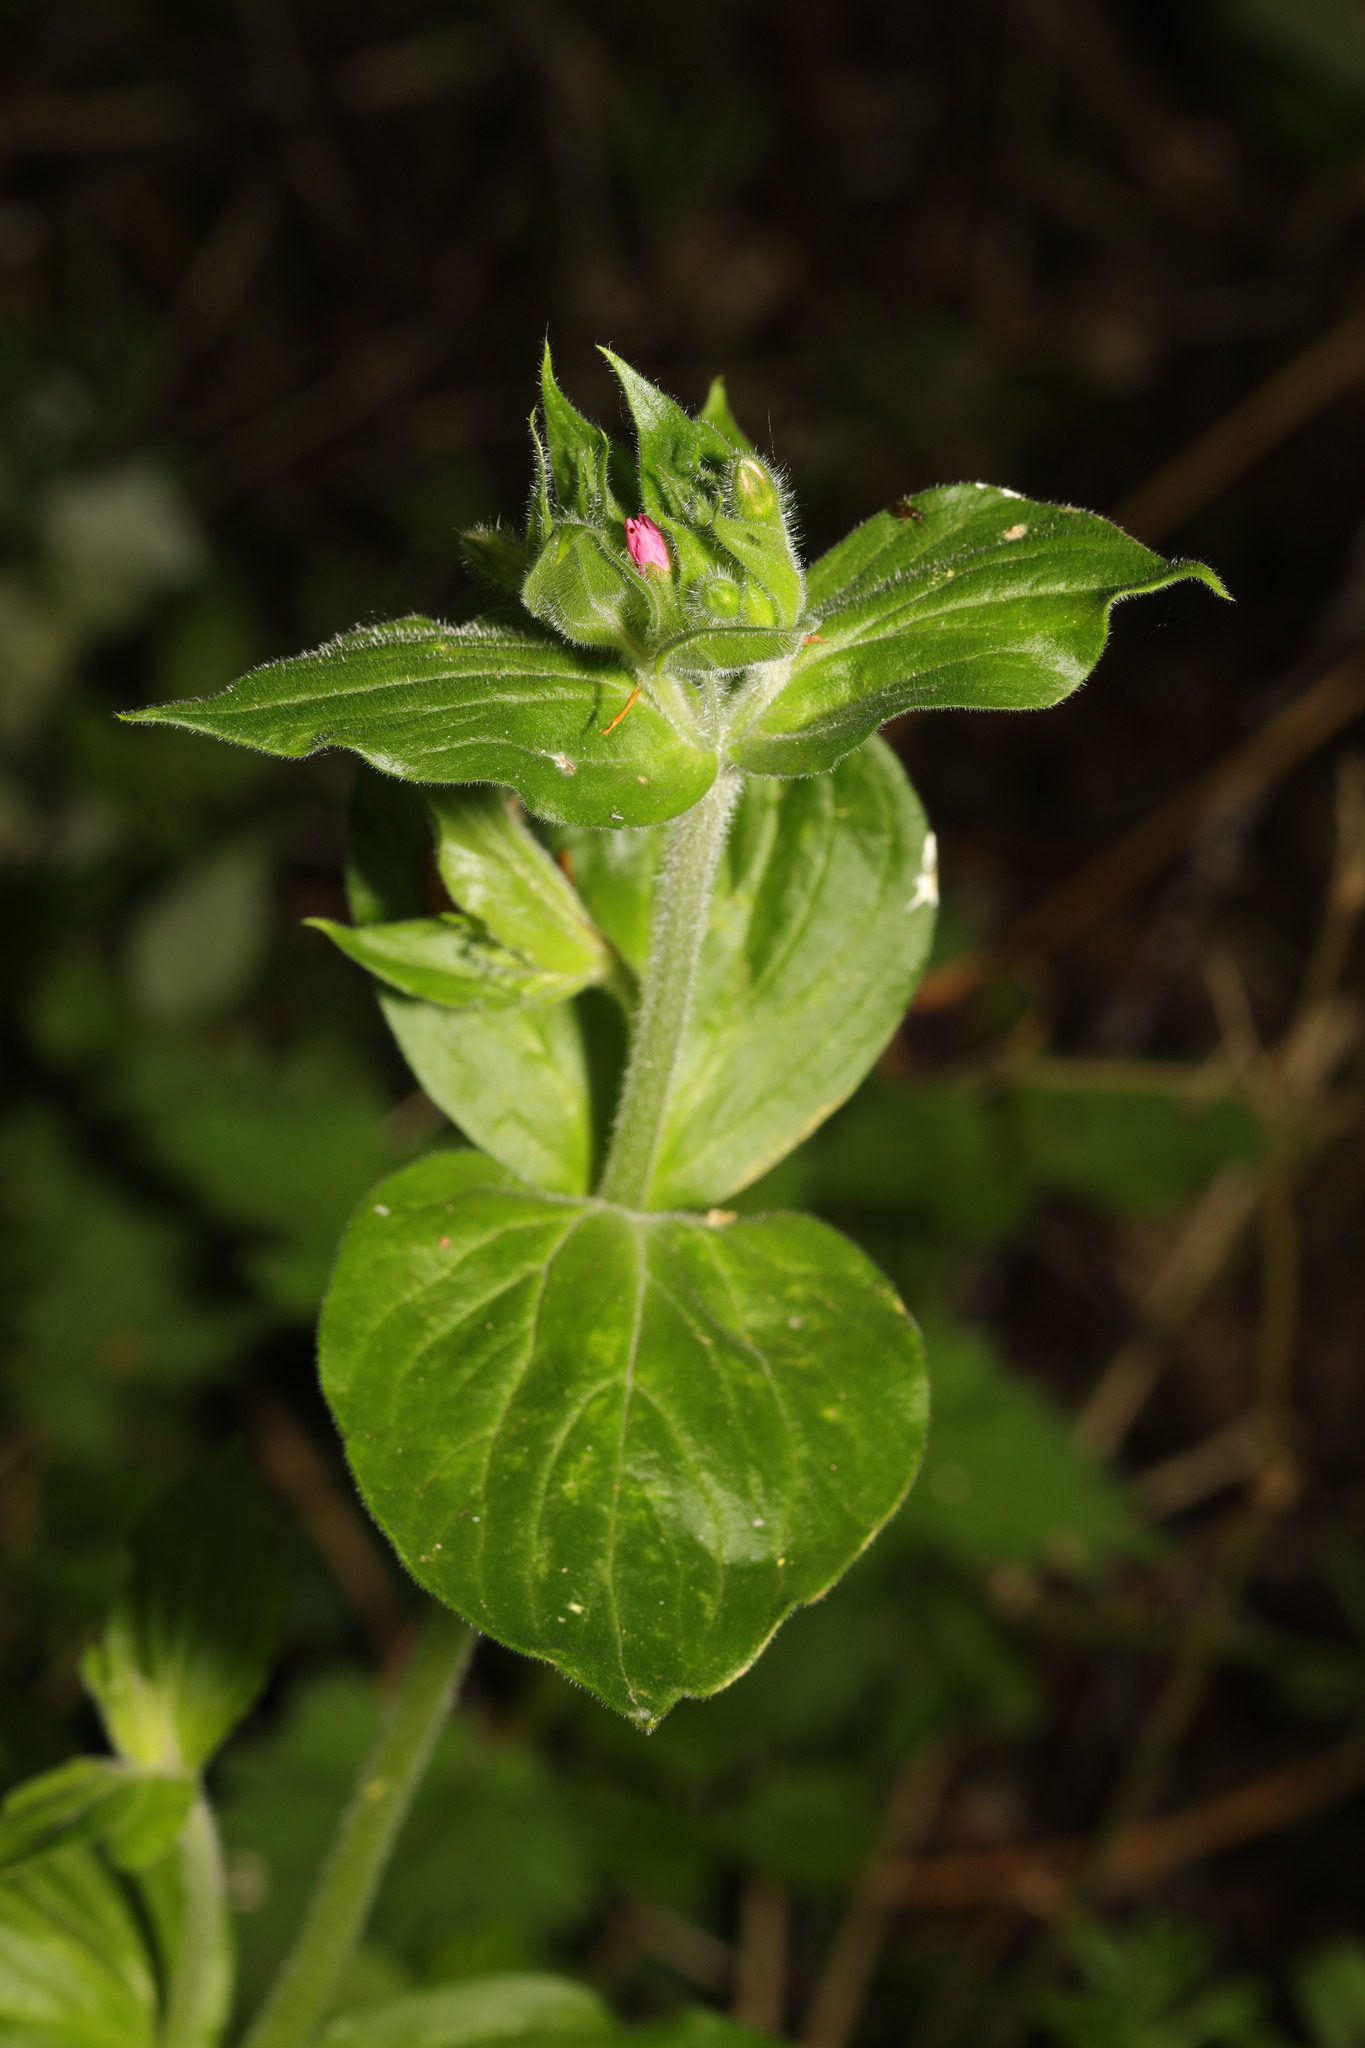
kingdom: Plantae
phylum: Tracheophyta
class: Magnoliopsida
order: Caryophyllales
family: Caryophyllaceae
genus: Silene
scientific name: Silene dioica
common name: Red campion
